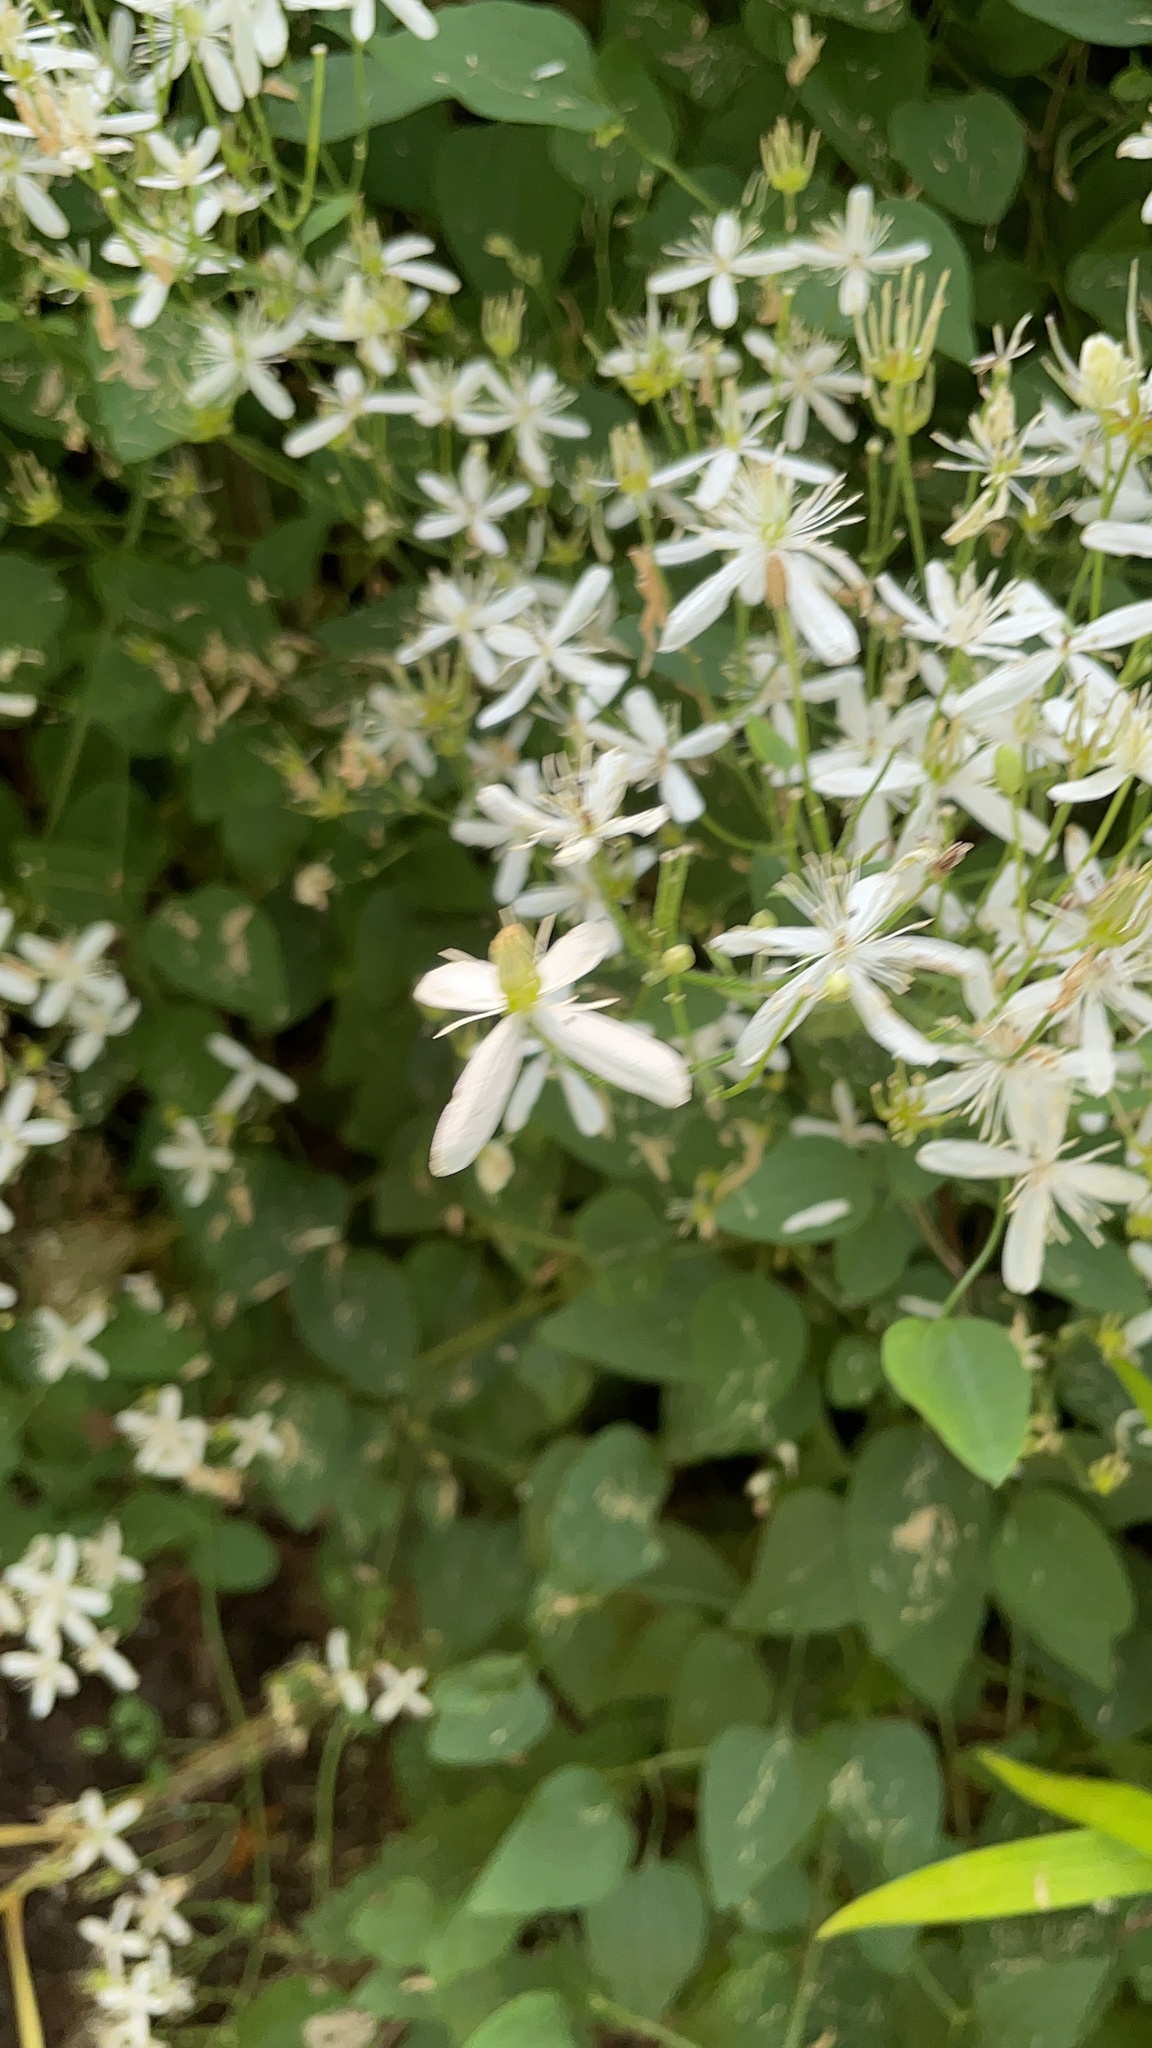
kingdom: Plantae
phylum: Tracheophyta
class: Magnoliopsida
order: Ranunculales
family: Ranunculaceae
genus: Clematis
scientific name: Clematis terniflora
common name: Sweet autumn clematis
